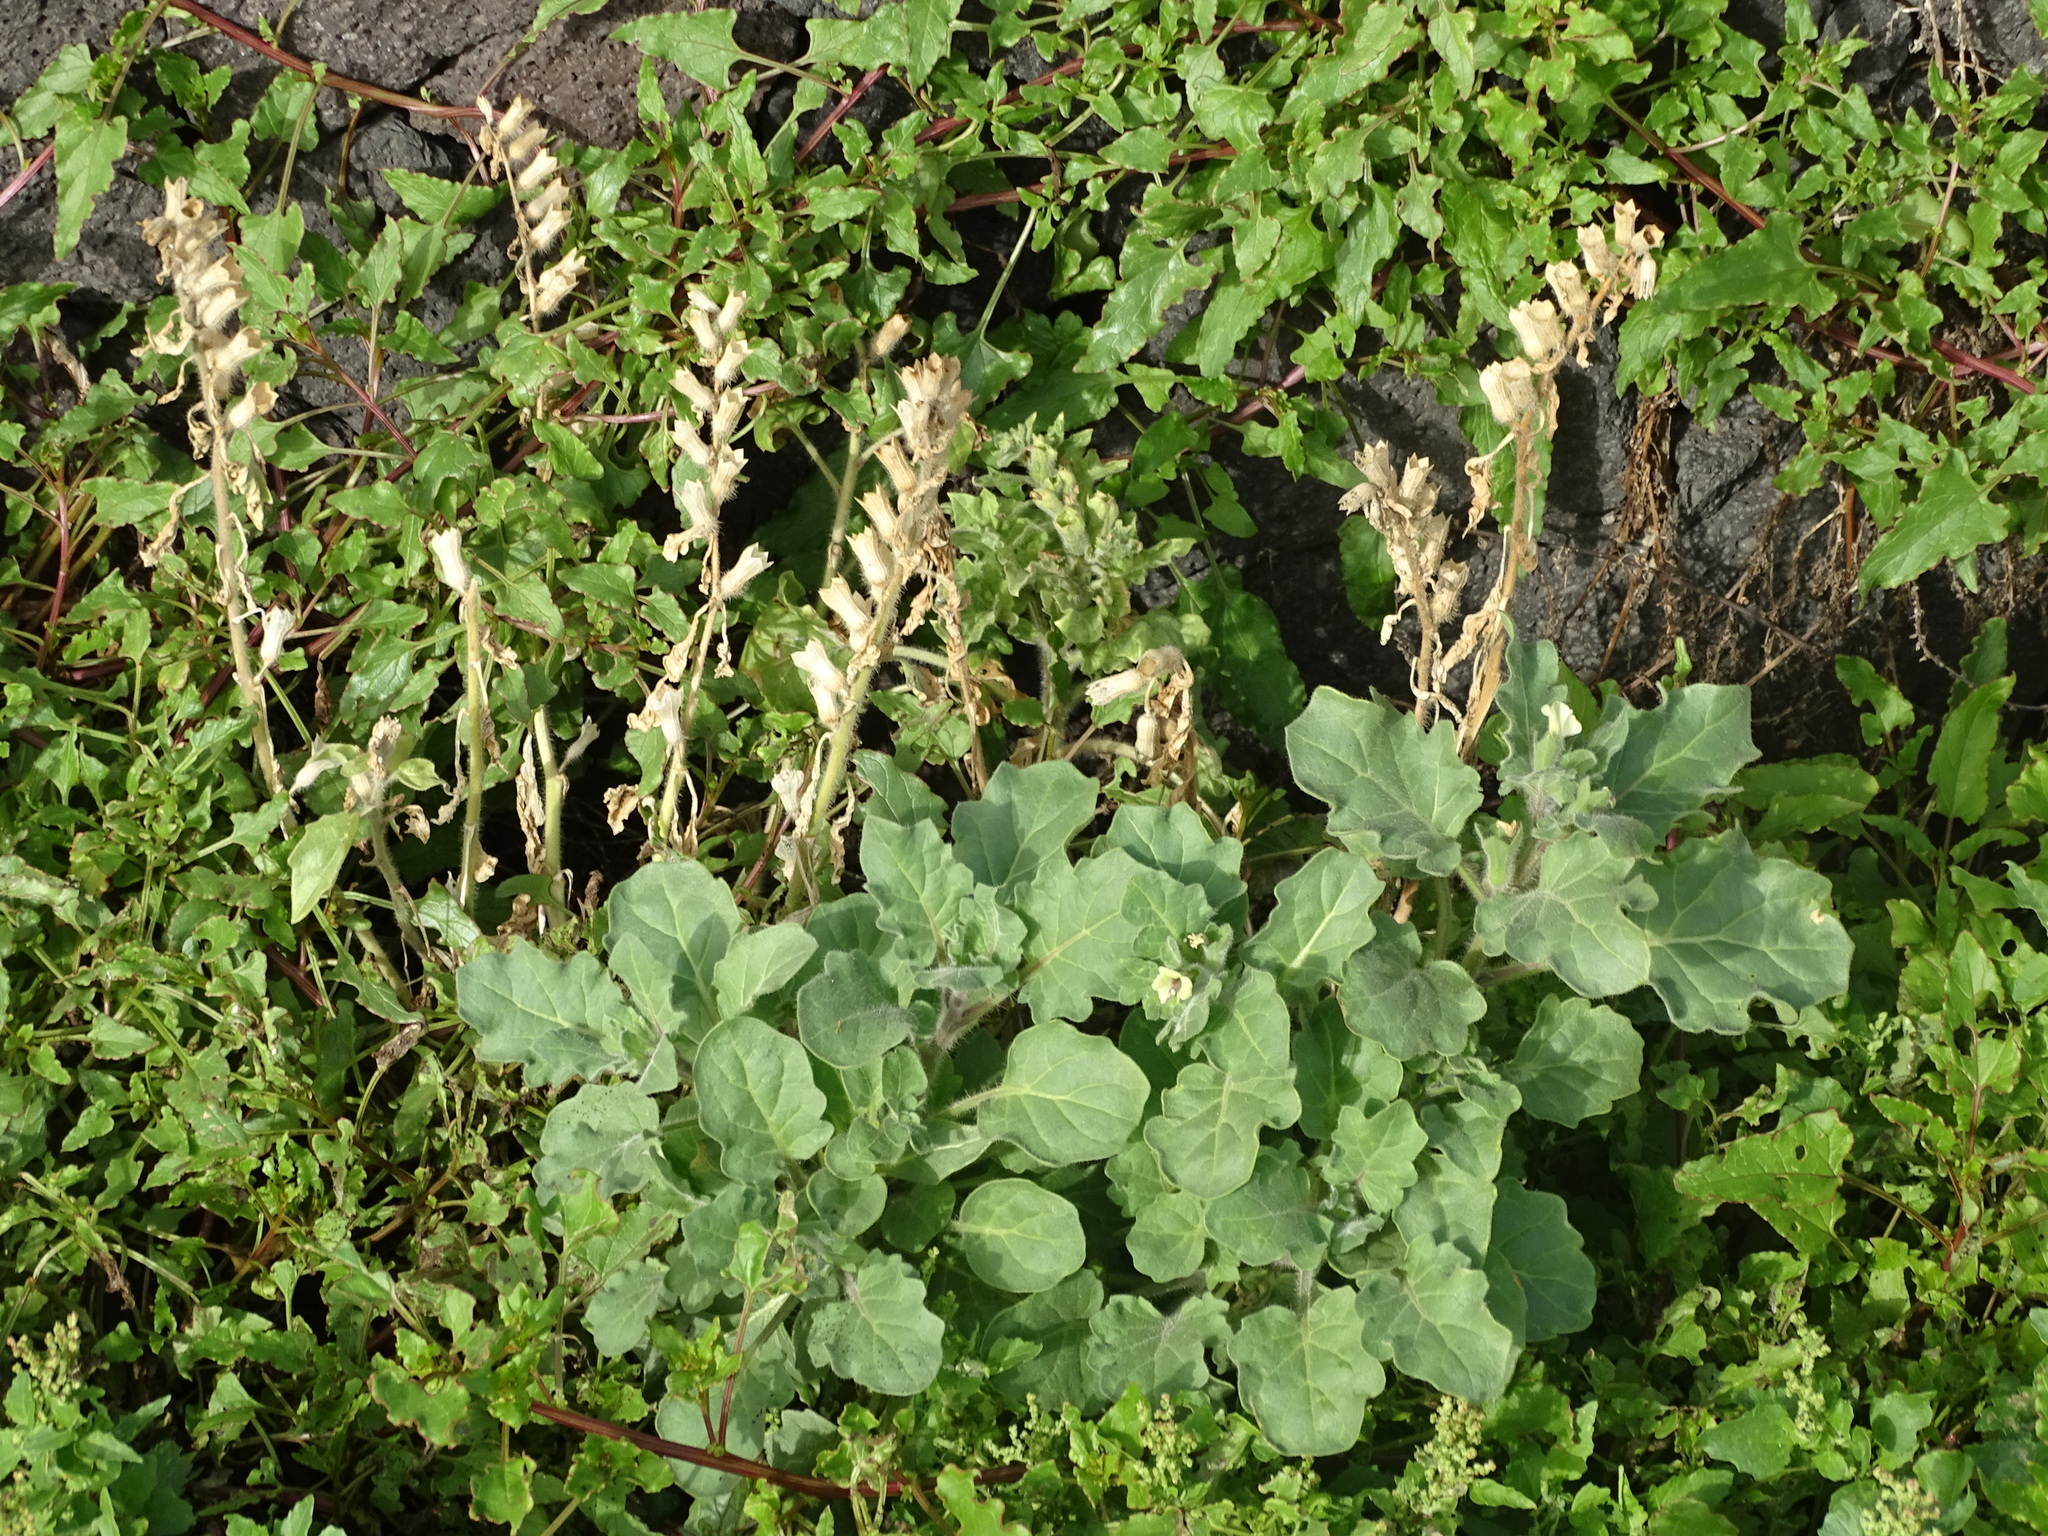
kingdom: Plantae
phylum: Tracheophyta
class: Magnoliopsida
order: Solanales
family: Solanaceae
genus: Hyoscyamus
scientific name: Hyoscyamus albus
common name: White henbane
